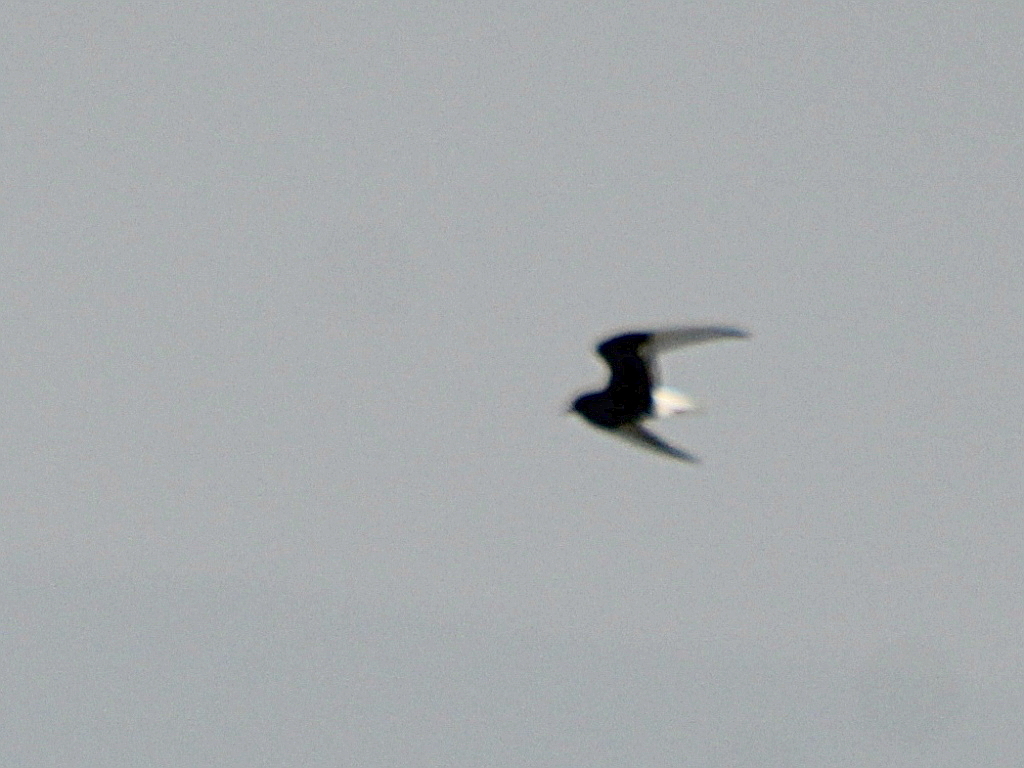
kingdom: Animalia
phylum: Chordata
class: Aves
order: Charadriiformes
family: Laridae
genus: Chlidonias
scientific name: Chlidonias leucopterus
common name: White-winged tern
